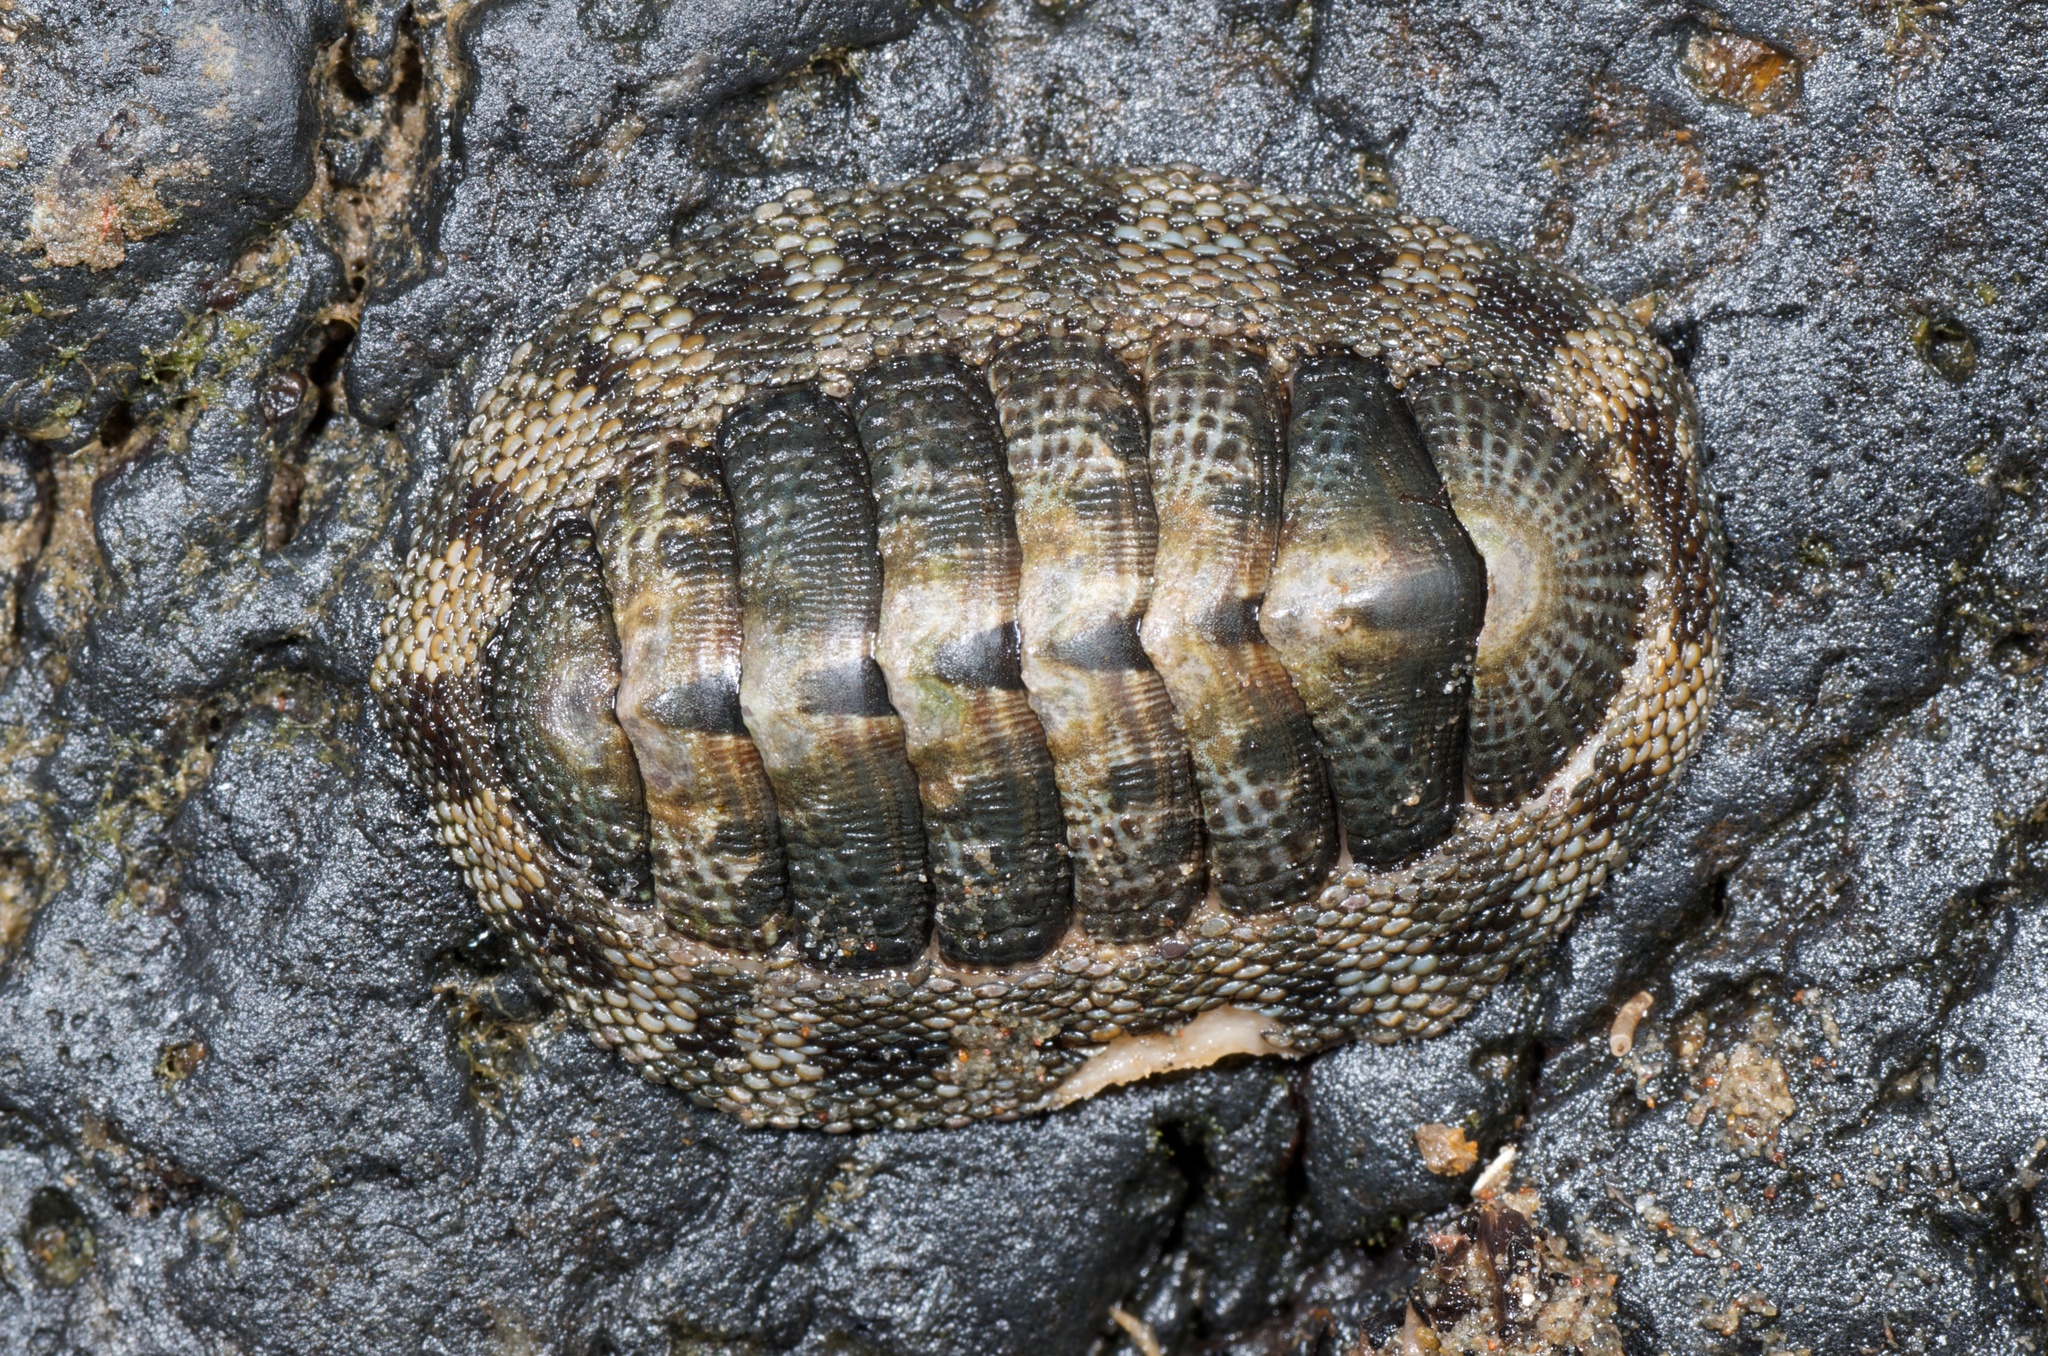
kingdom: Animalia
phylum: Mollusca
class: Polyplacophora
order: Chitonida
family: Chitonidae
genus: Sypharochiton
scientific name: Sypharochiton pelliserpentis
